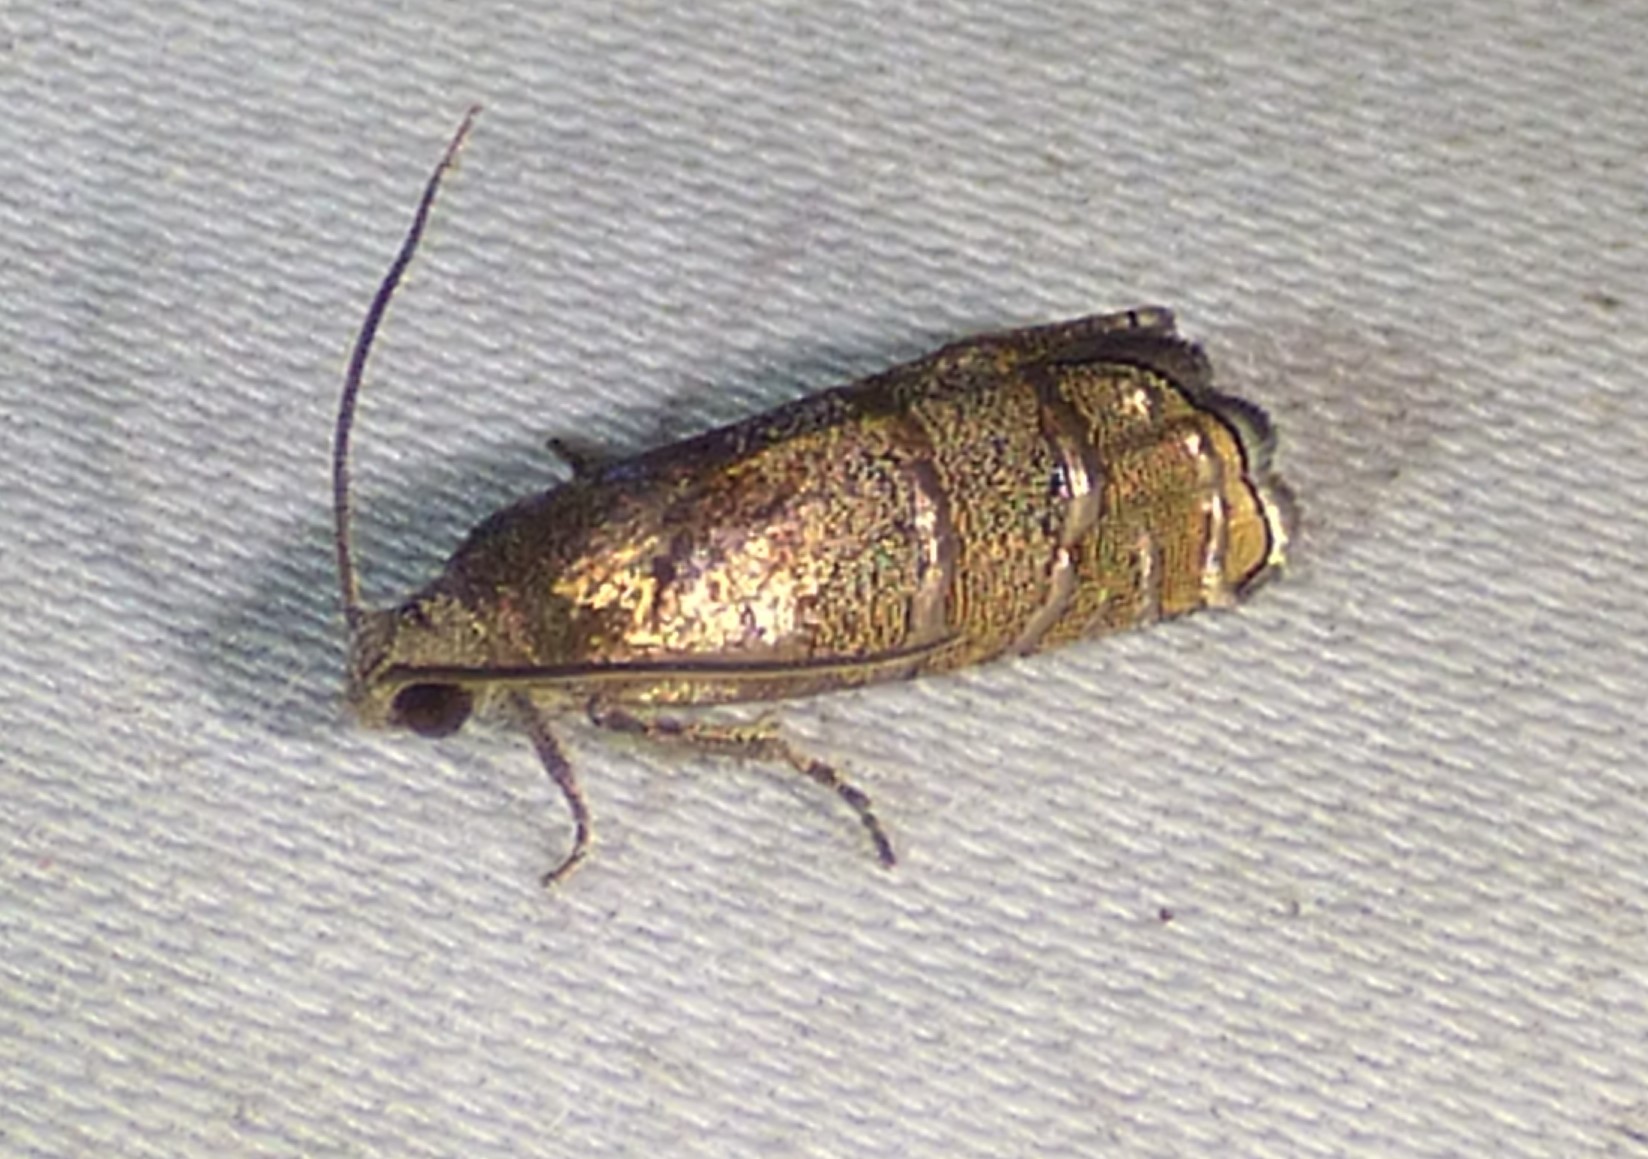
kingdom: Animalia
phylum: Arthropoda
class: Insecta
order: Lepidoptera
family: Tortricidae
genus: Cydia
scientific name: Cydia toreuta
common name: Eastern pine seedworm moth
